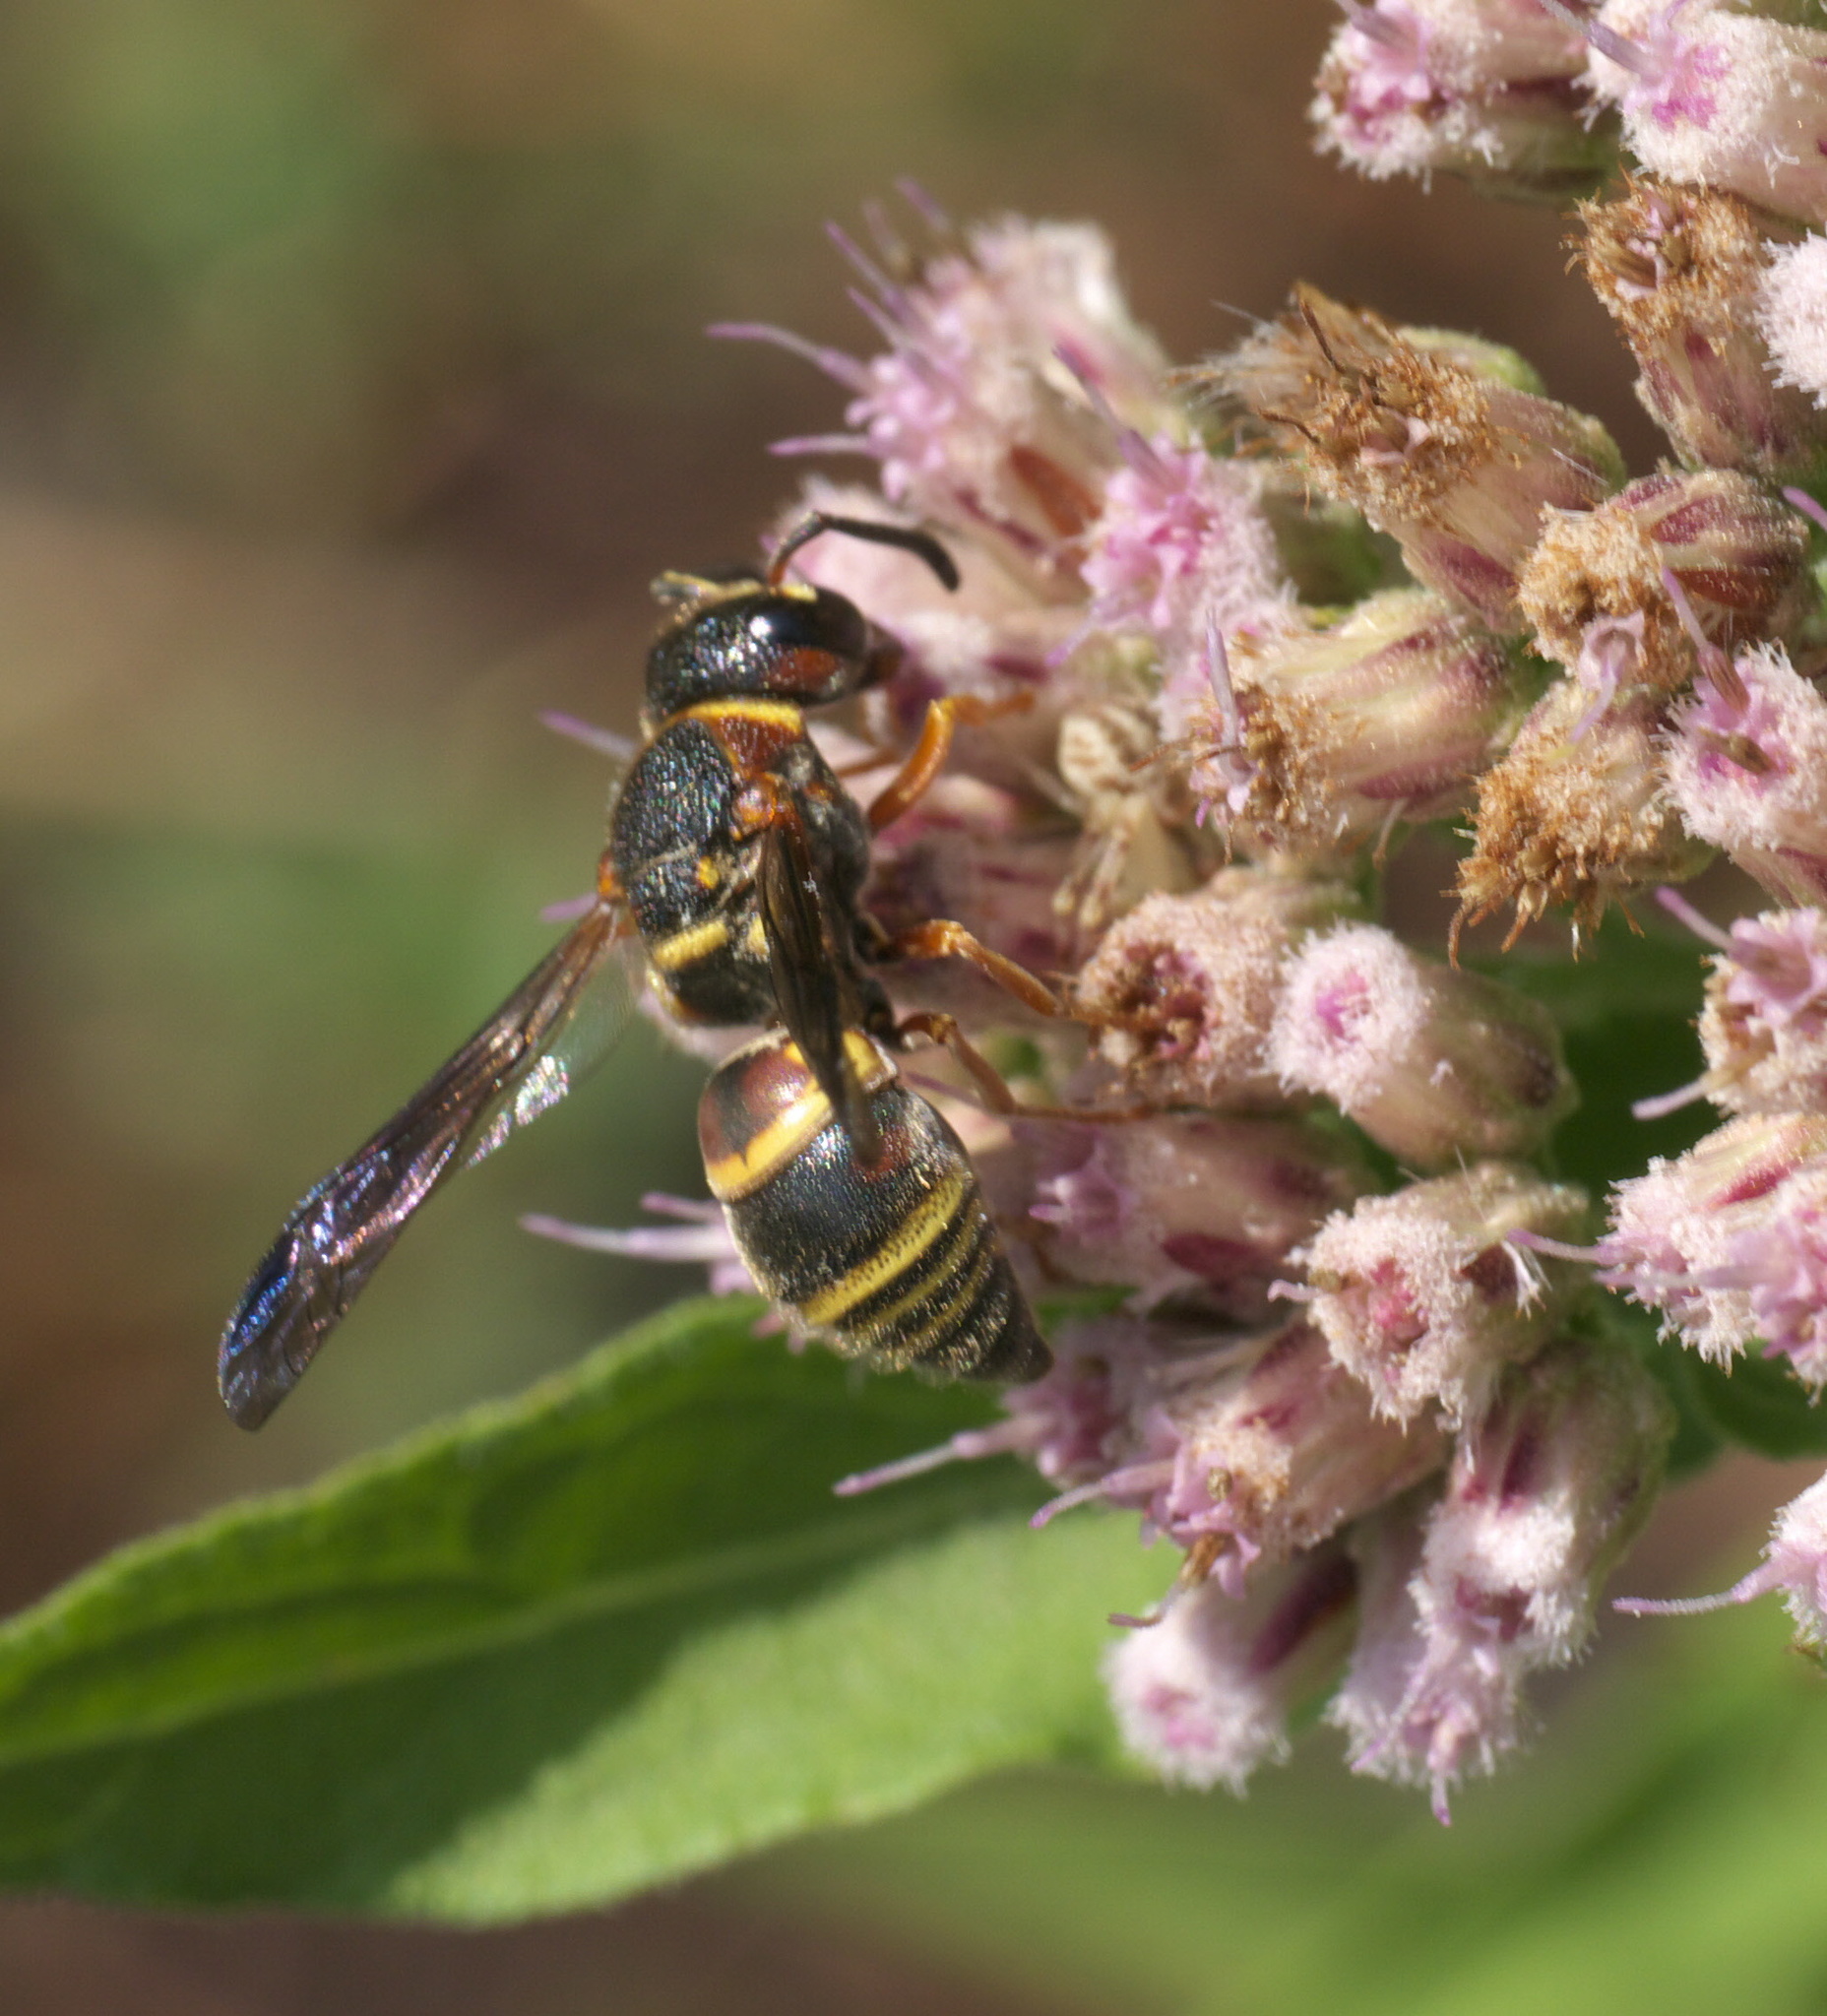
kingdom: Animalia
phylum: Arthropoda
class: Insecta
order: Hymenoptera
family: Eumenidae
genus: Euodynerus
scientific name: Euodynerus annulatus
